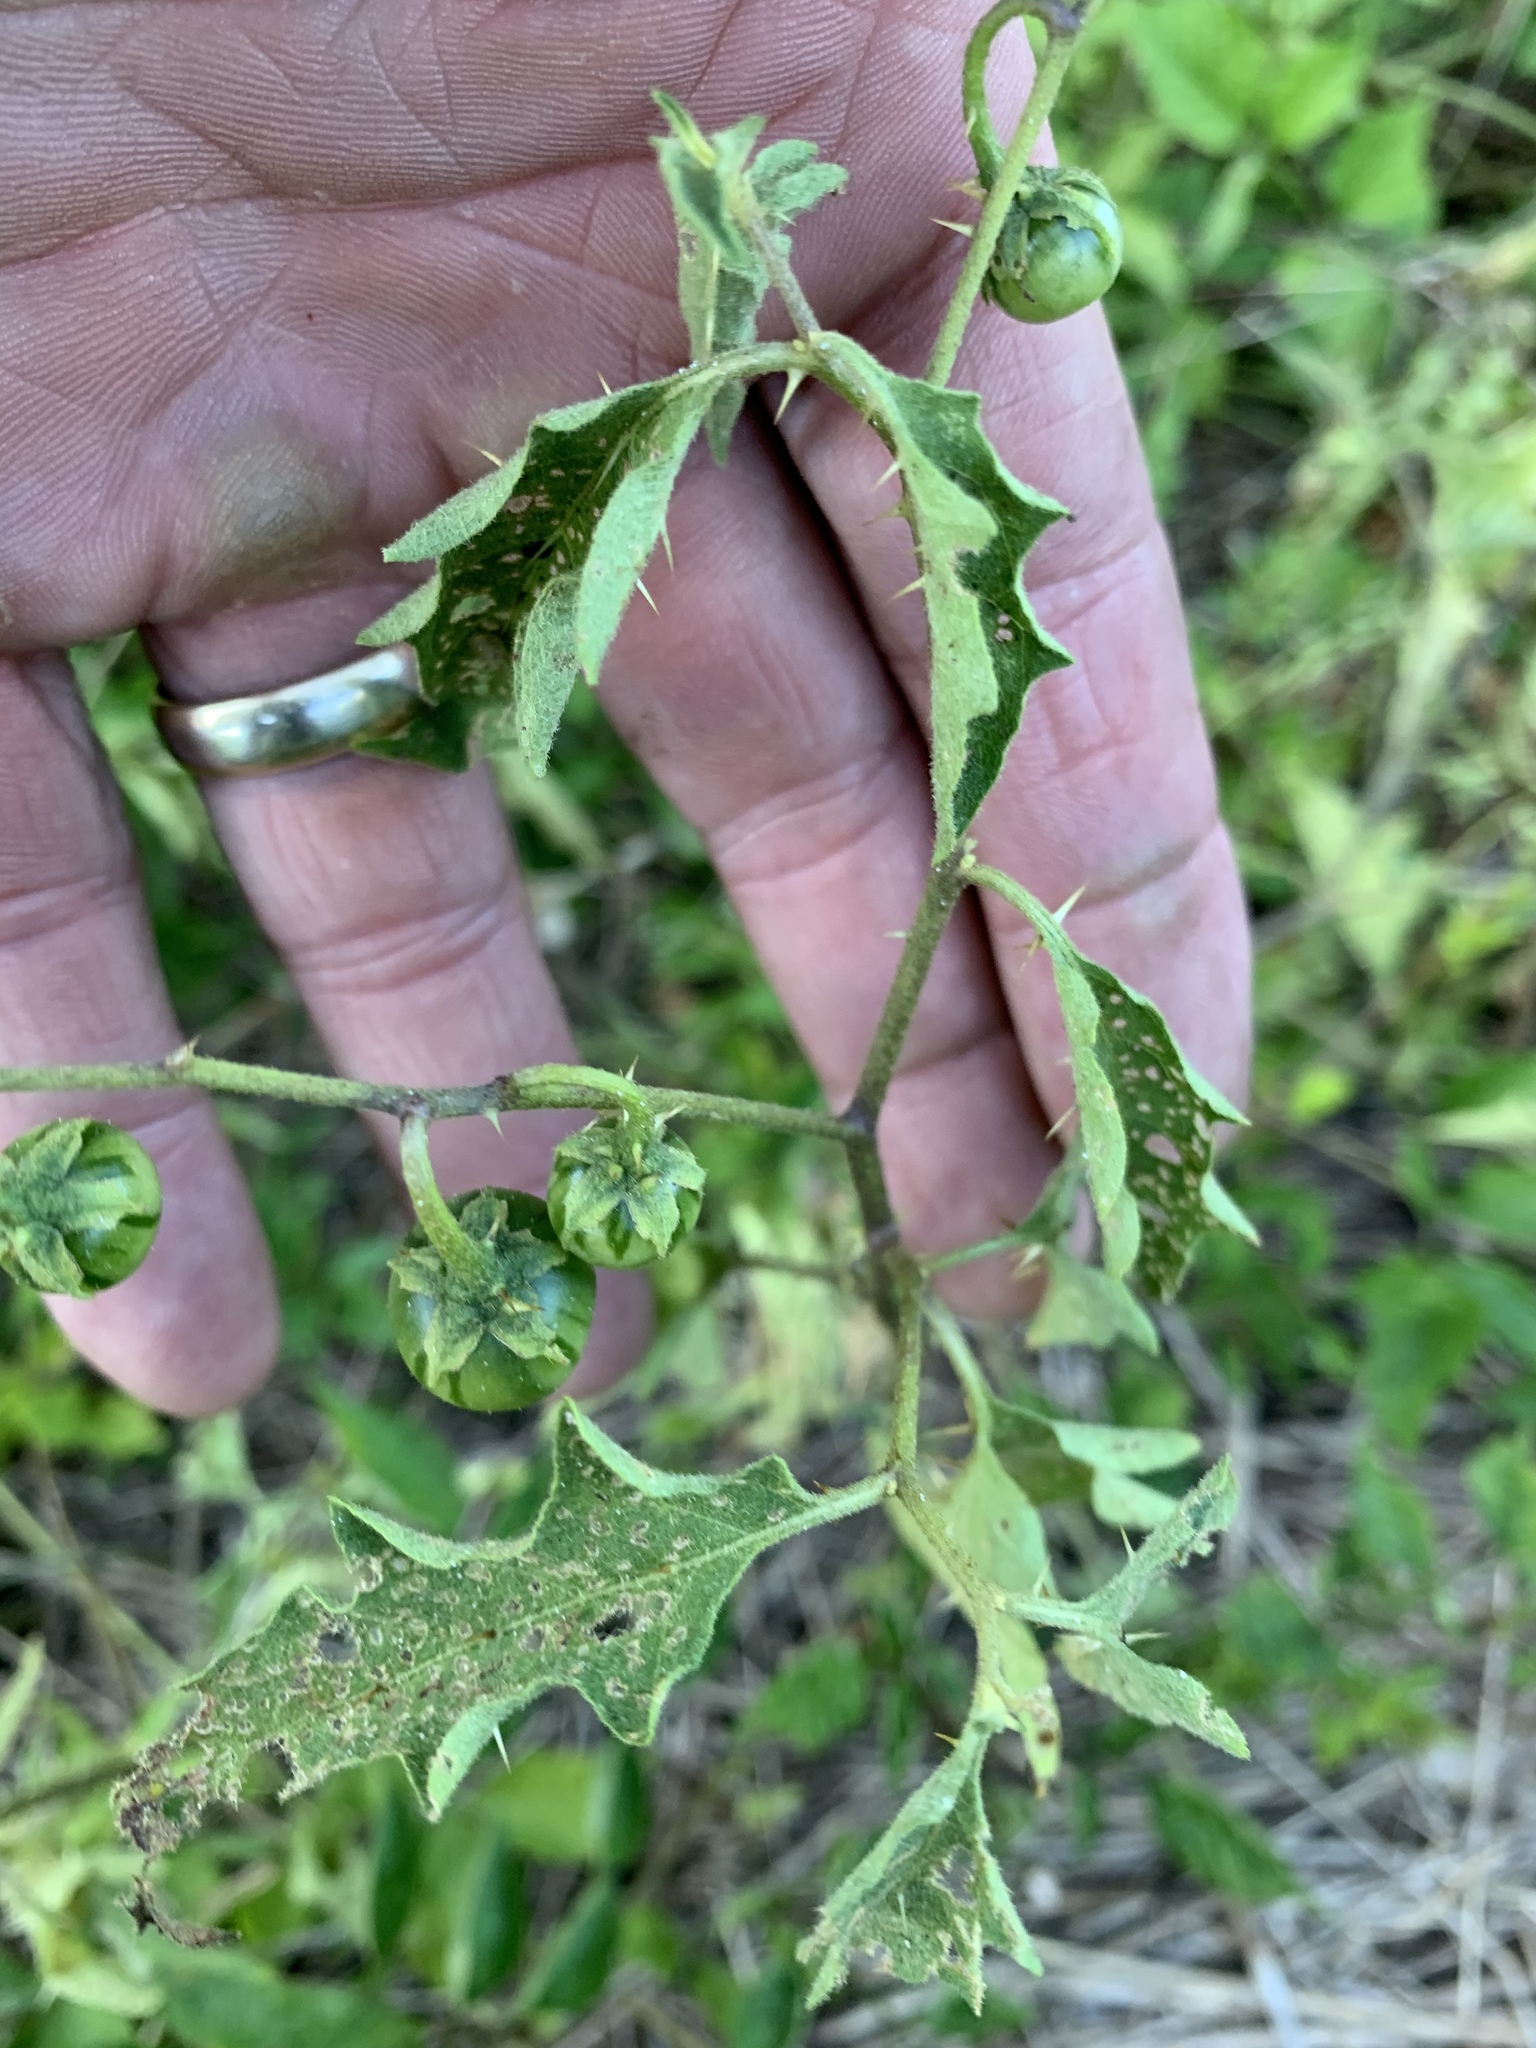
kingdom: Plantae
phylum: Tracheophyta
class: Magnoliopsida
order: Solanales
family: Solanaceae
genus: Solanum
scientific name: Solanum carolinense
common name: Horse-nettle
